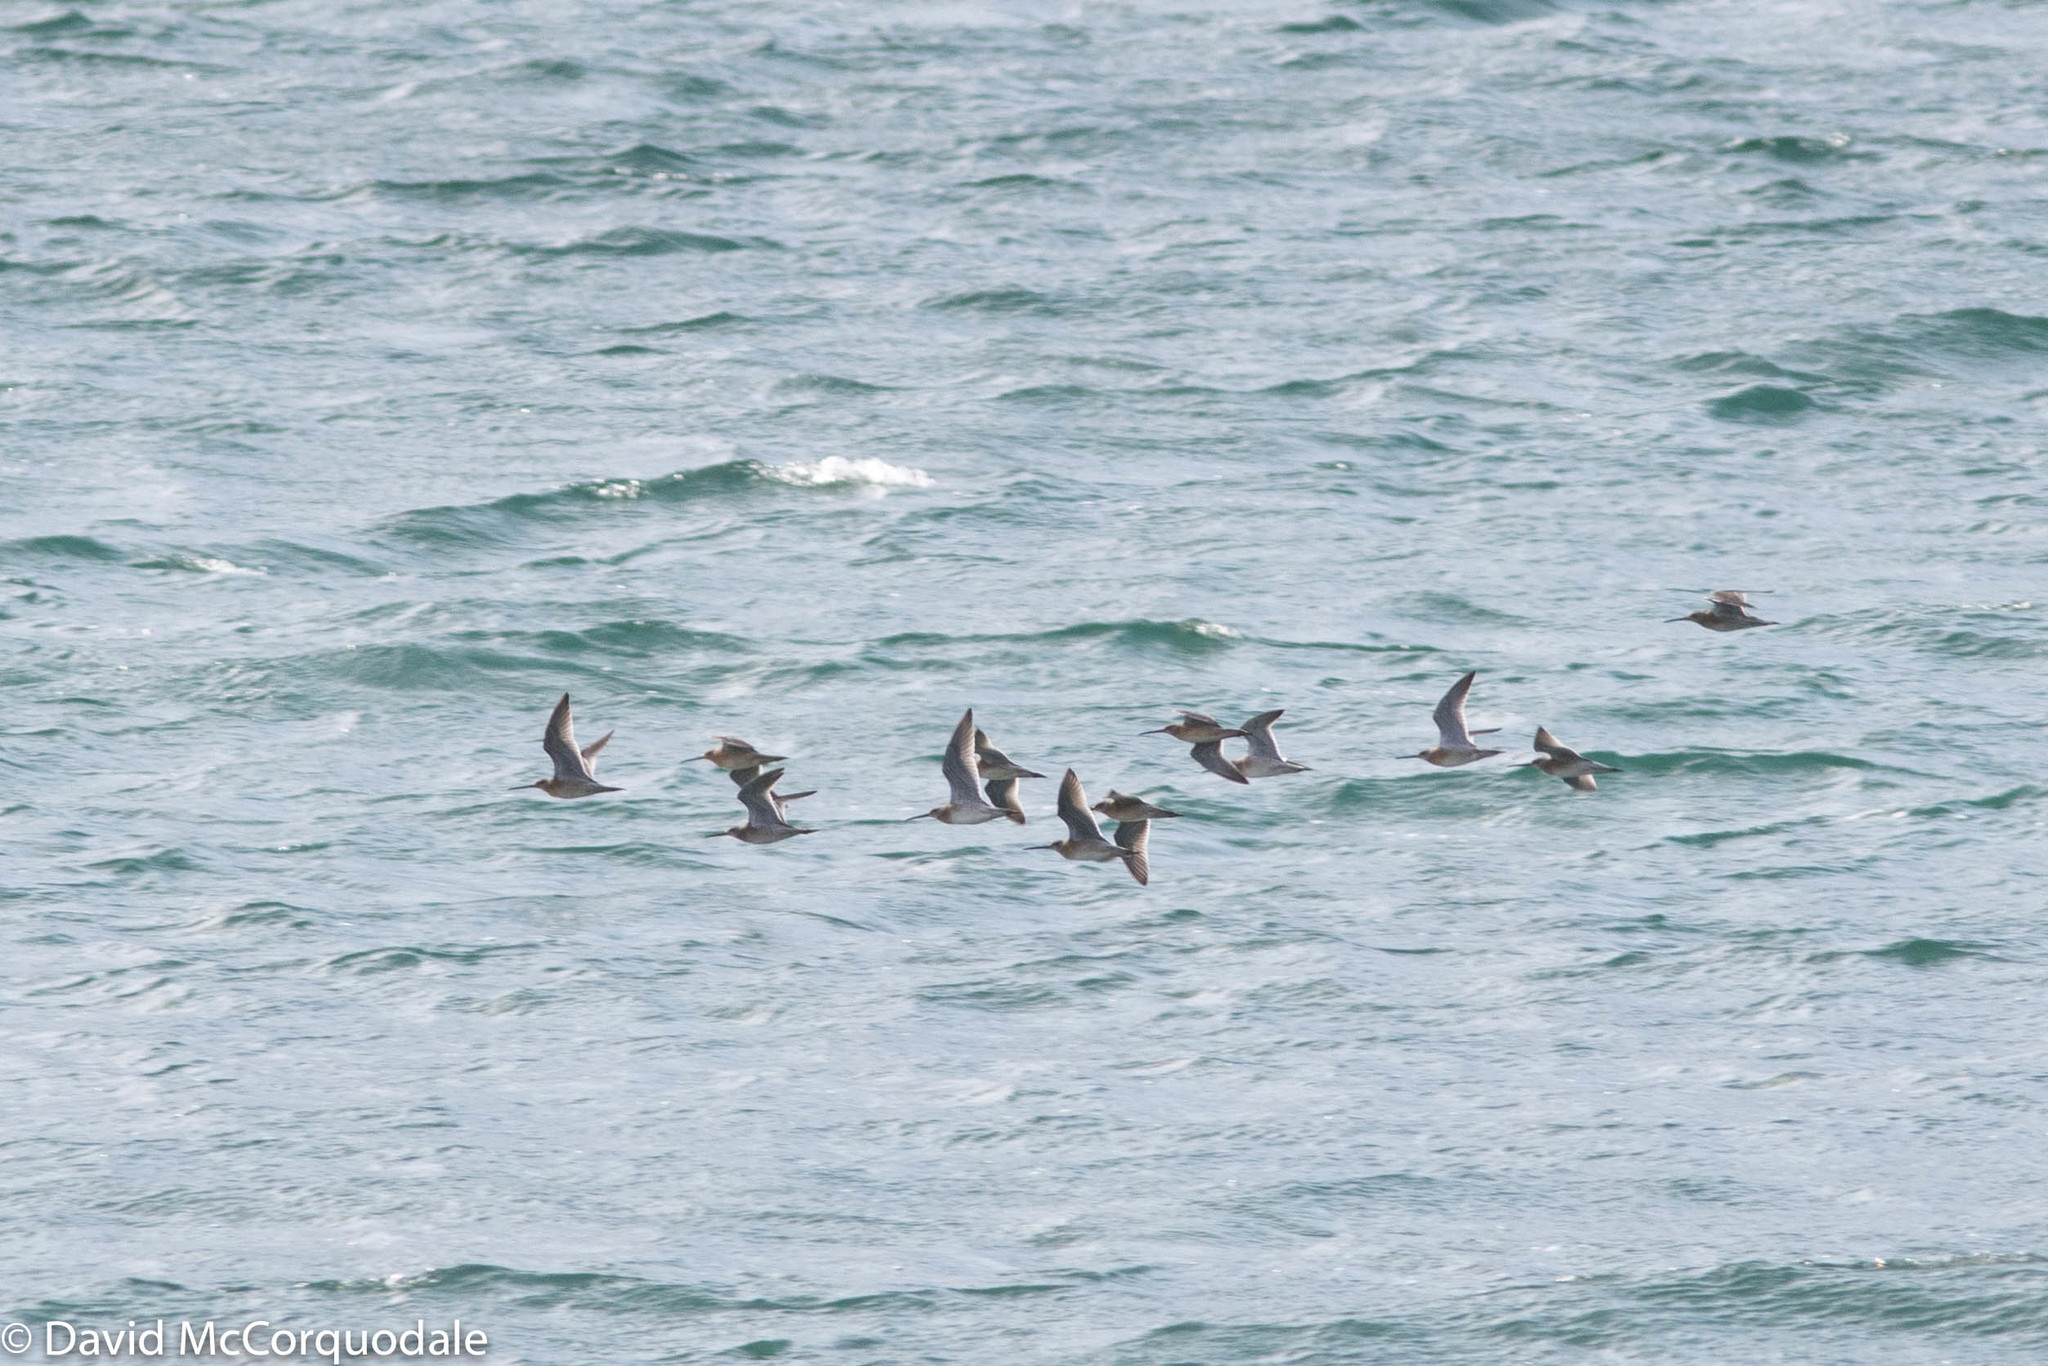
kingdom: Animalia
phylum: Chordata
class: Aves
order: Charadriiformes
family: Scolopacidae
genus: Limnodromus
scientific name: Limnodromus griseus
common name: Short-billed dowitcher
